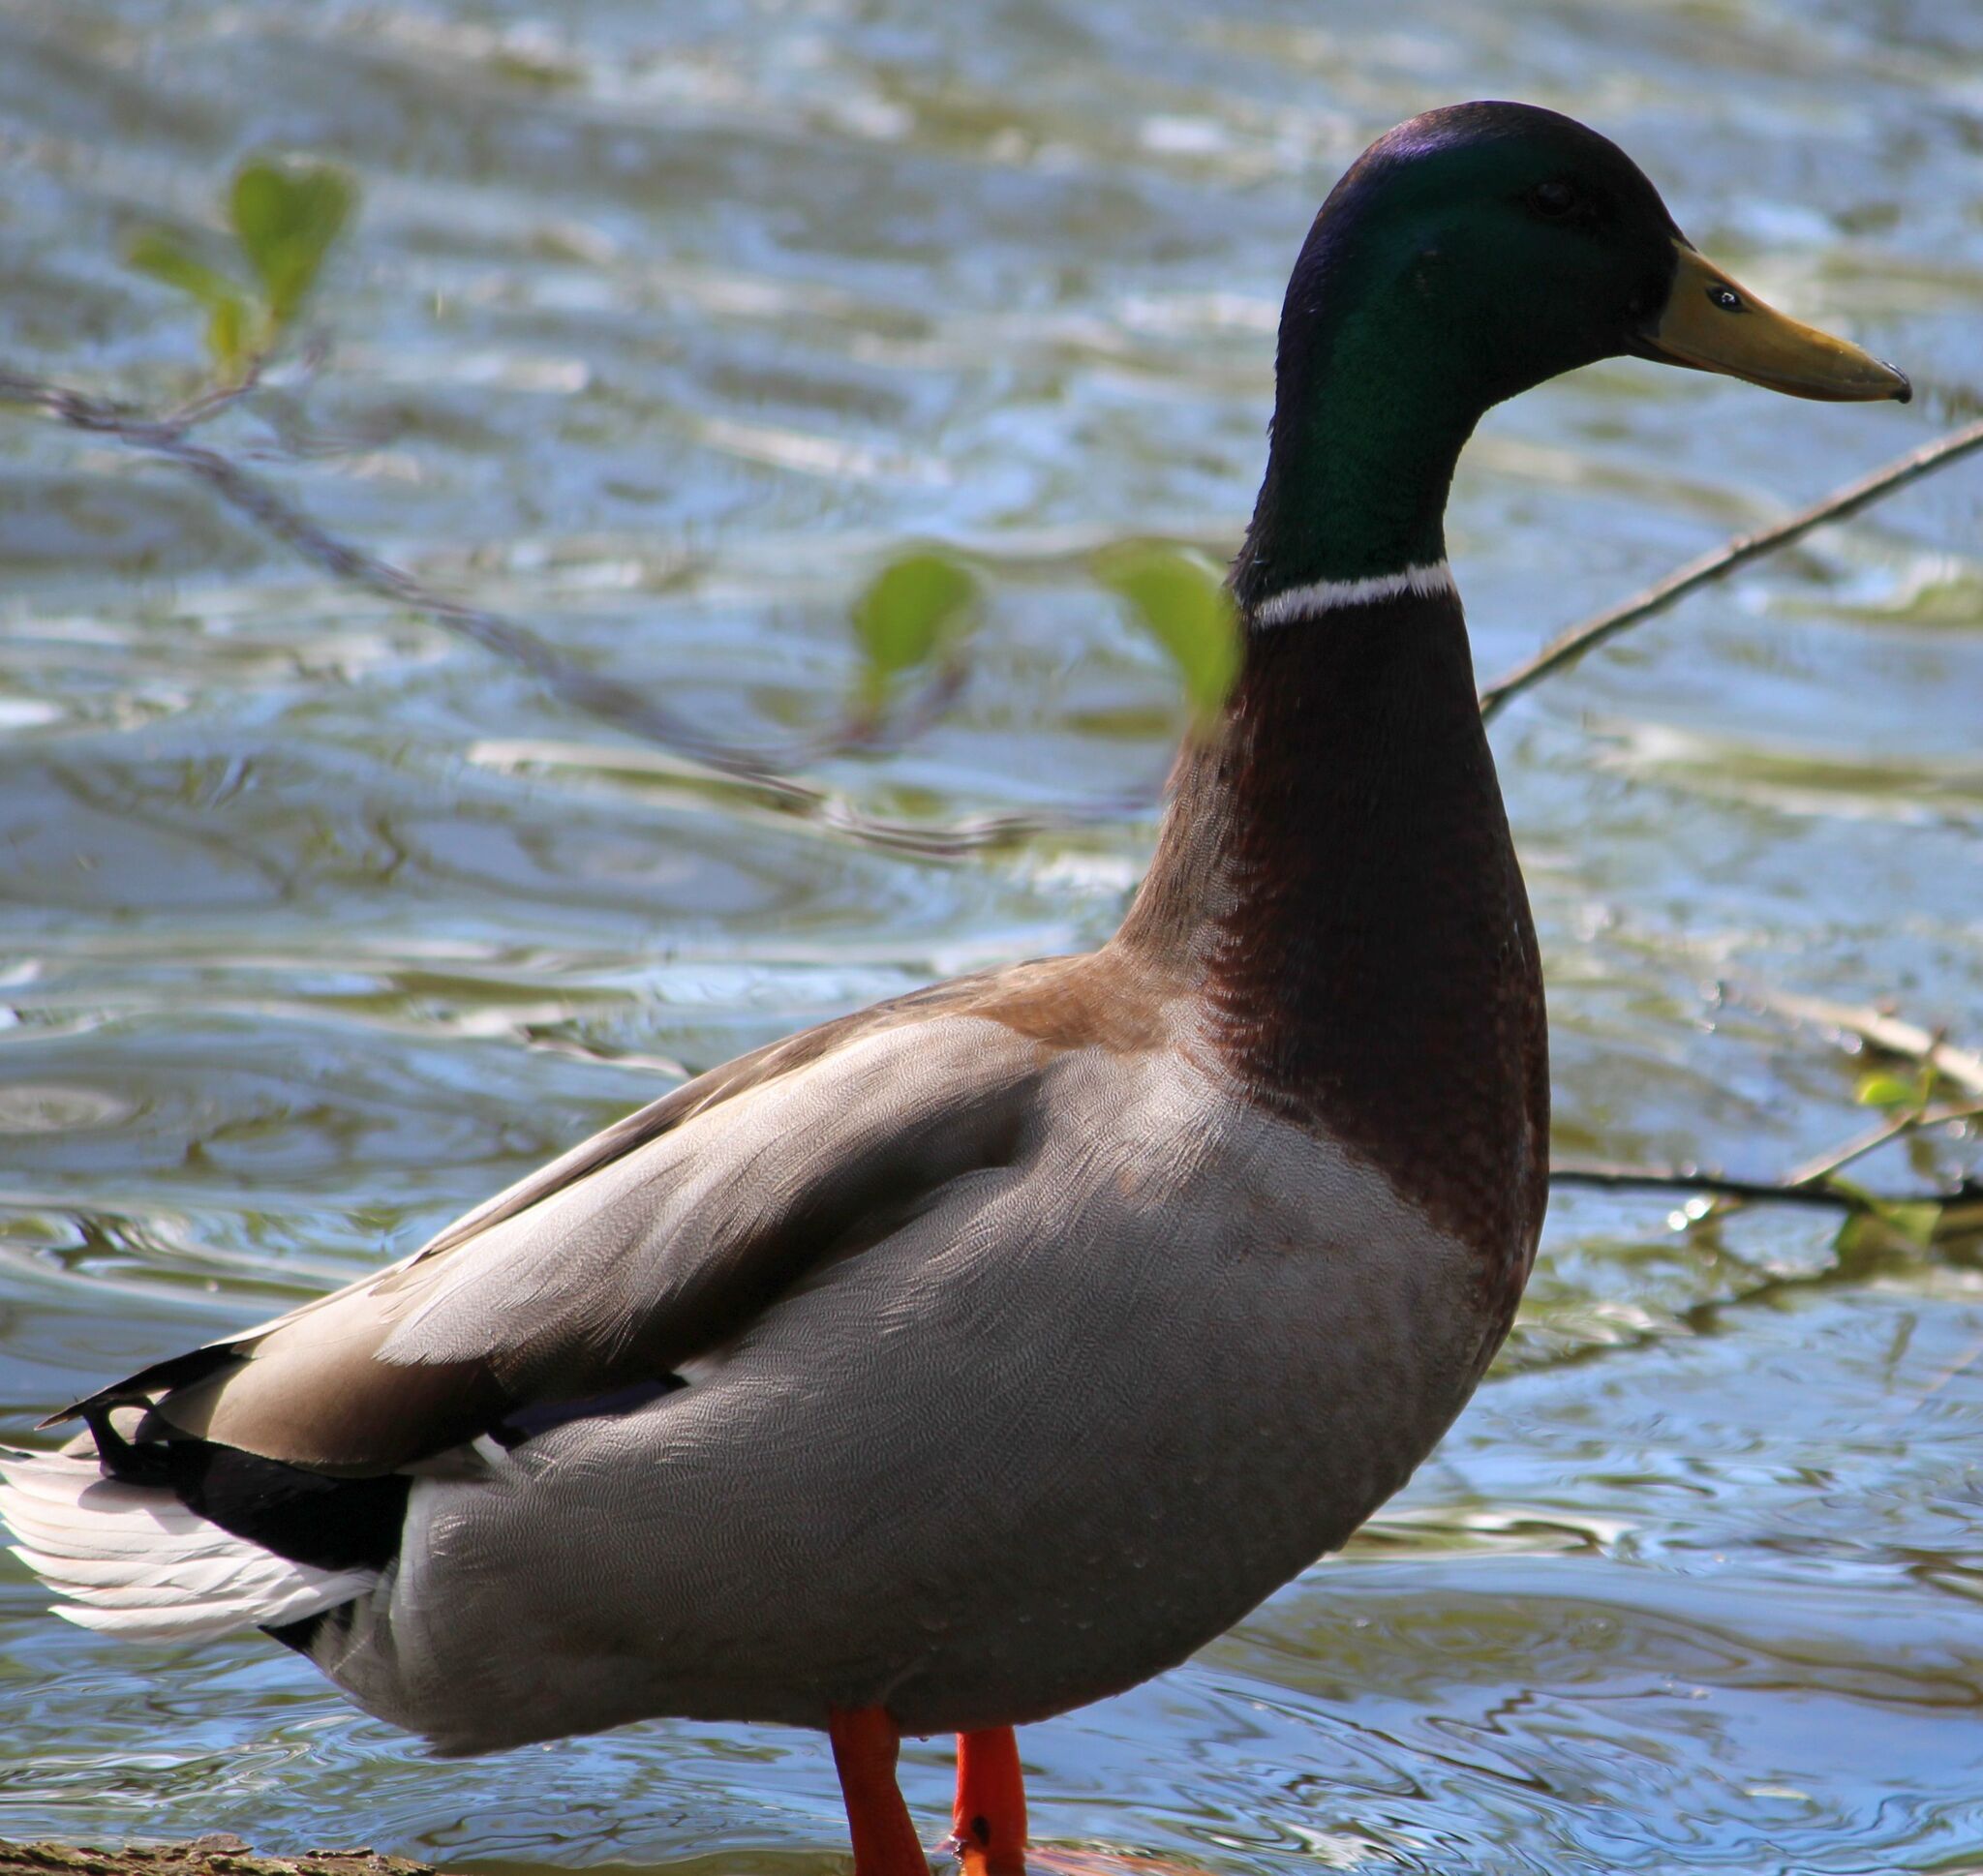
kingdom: Animalia
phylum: Chordata
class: Aves
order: Anseriformes
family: Anatidae
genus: Anas
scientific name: Anas platyrhynchos
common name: Mallard
